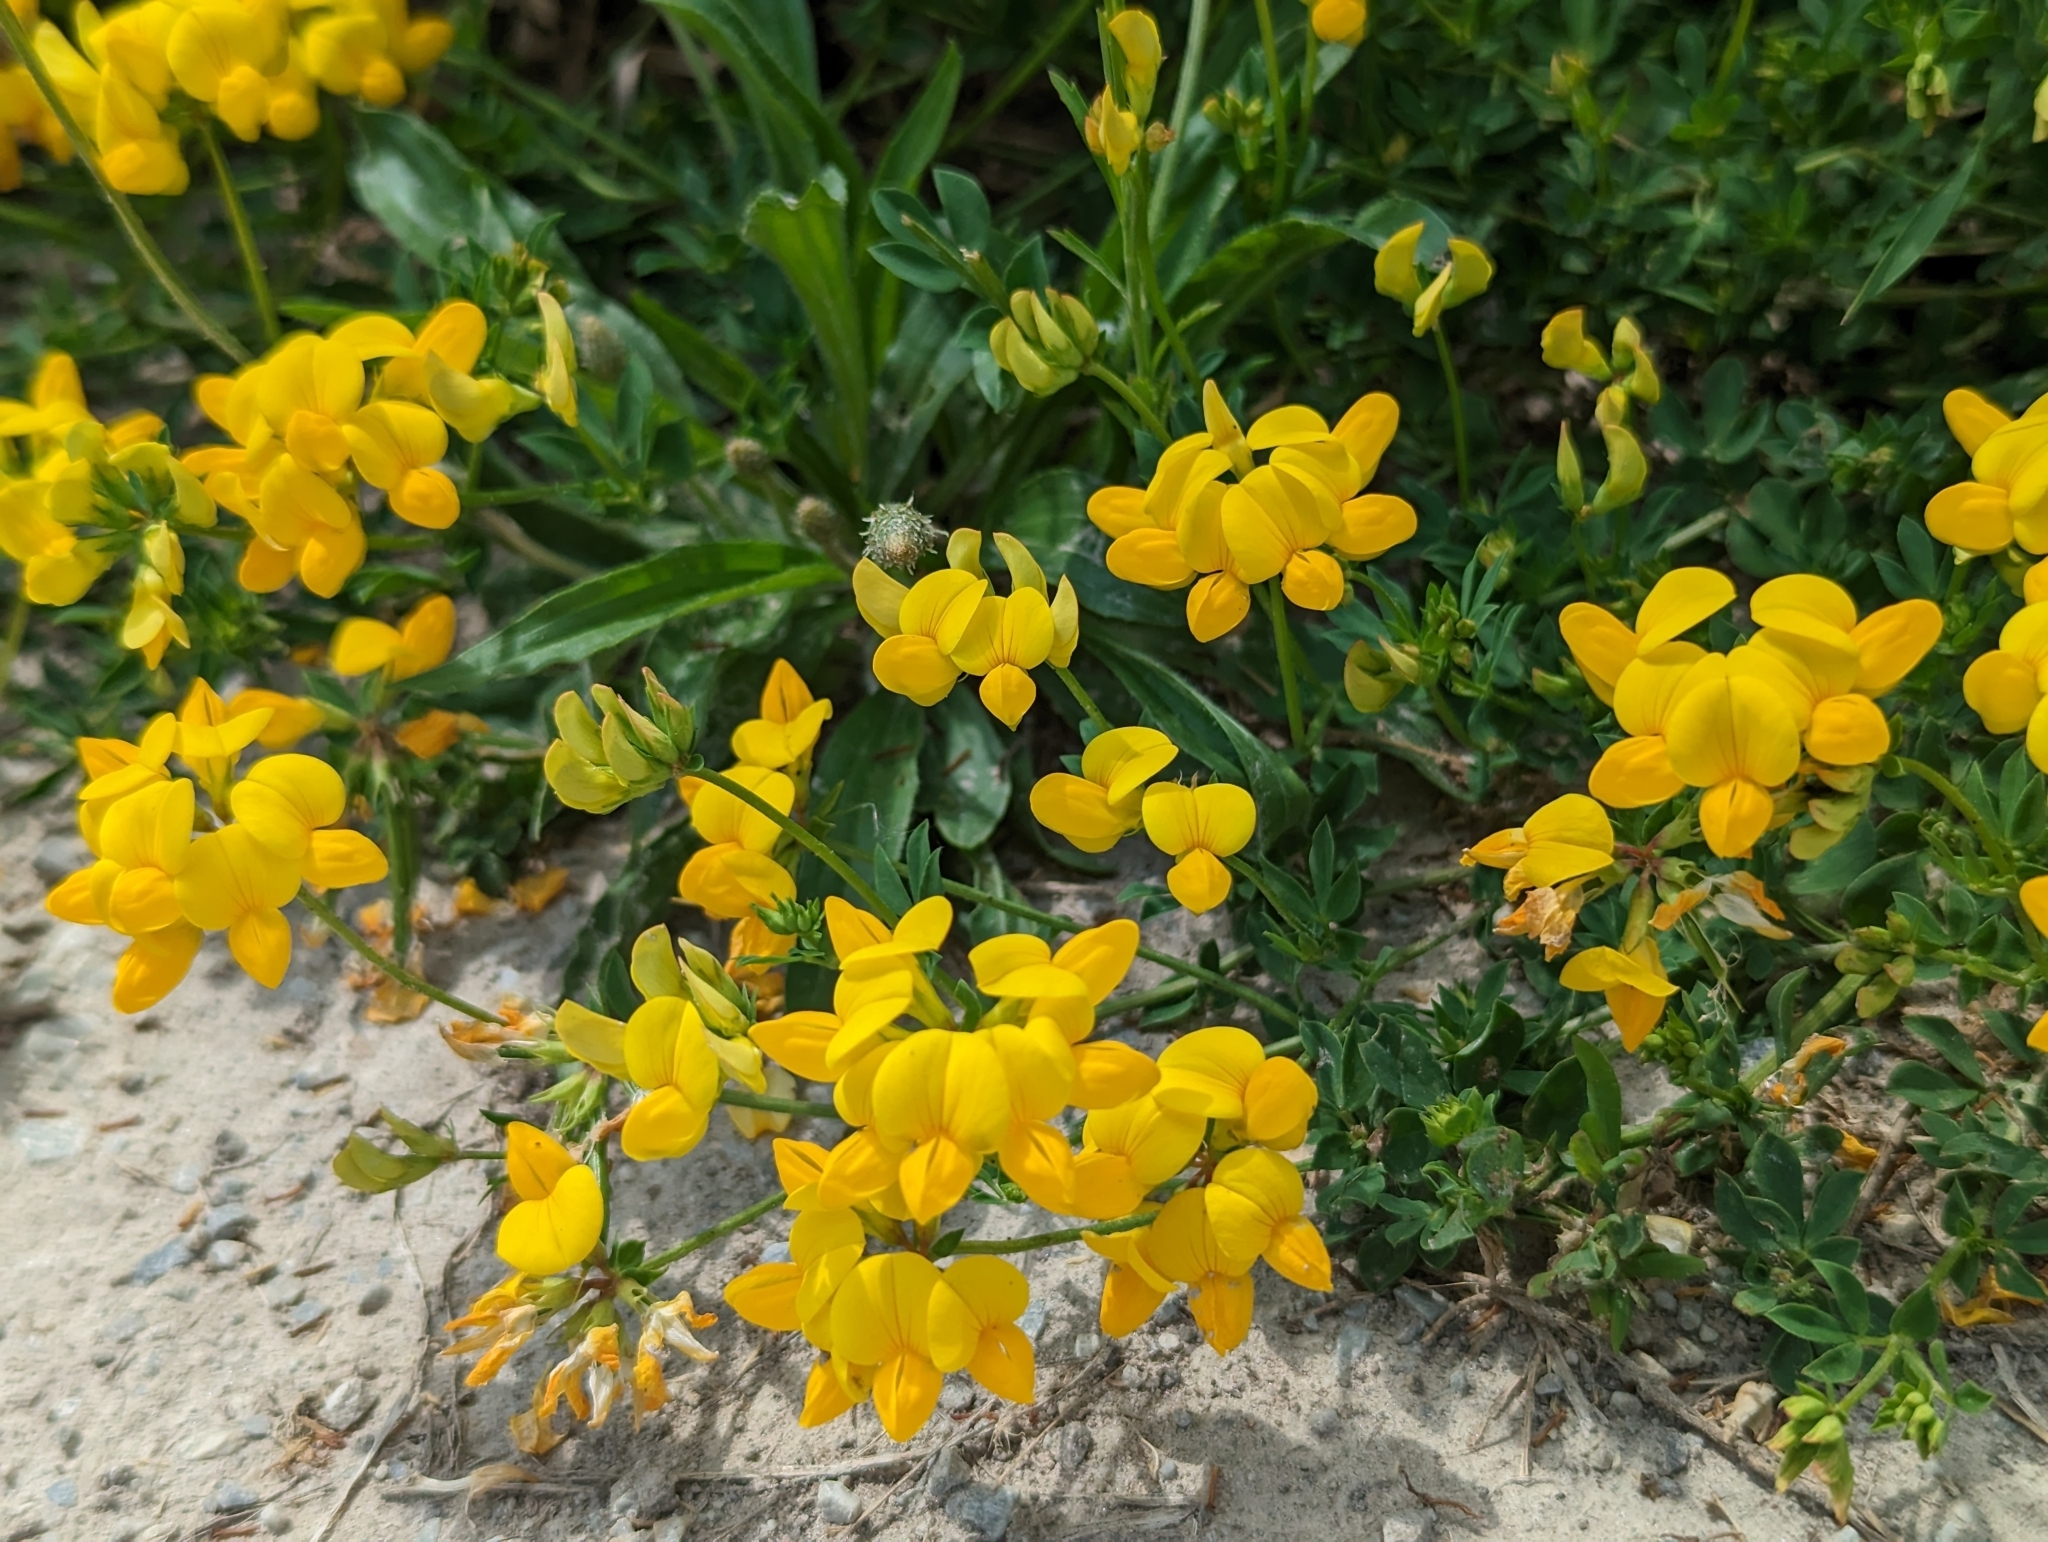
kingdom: Plantae
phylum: Tracheophyta
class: Magnoliopsida
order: Fabales
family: Fabaceae
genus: Lotus
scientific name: Lotus corniculatus
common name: Common bird's-foot-trefoil
